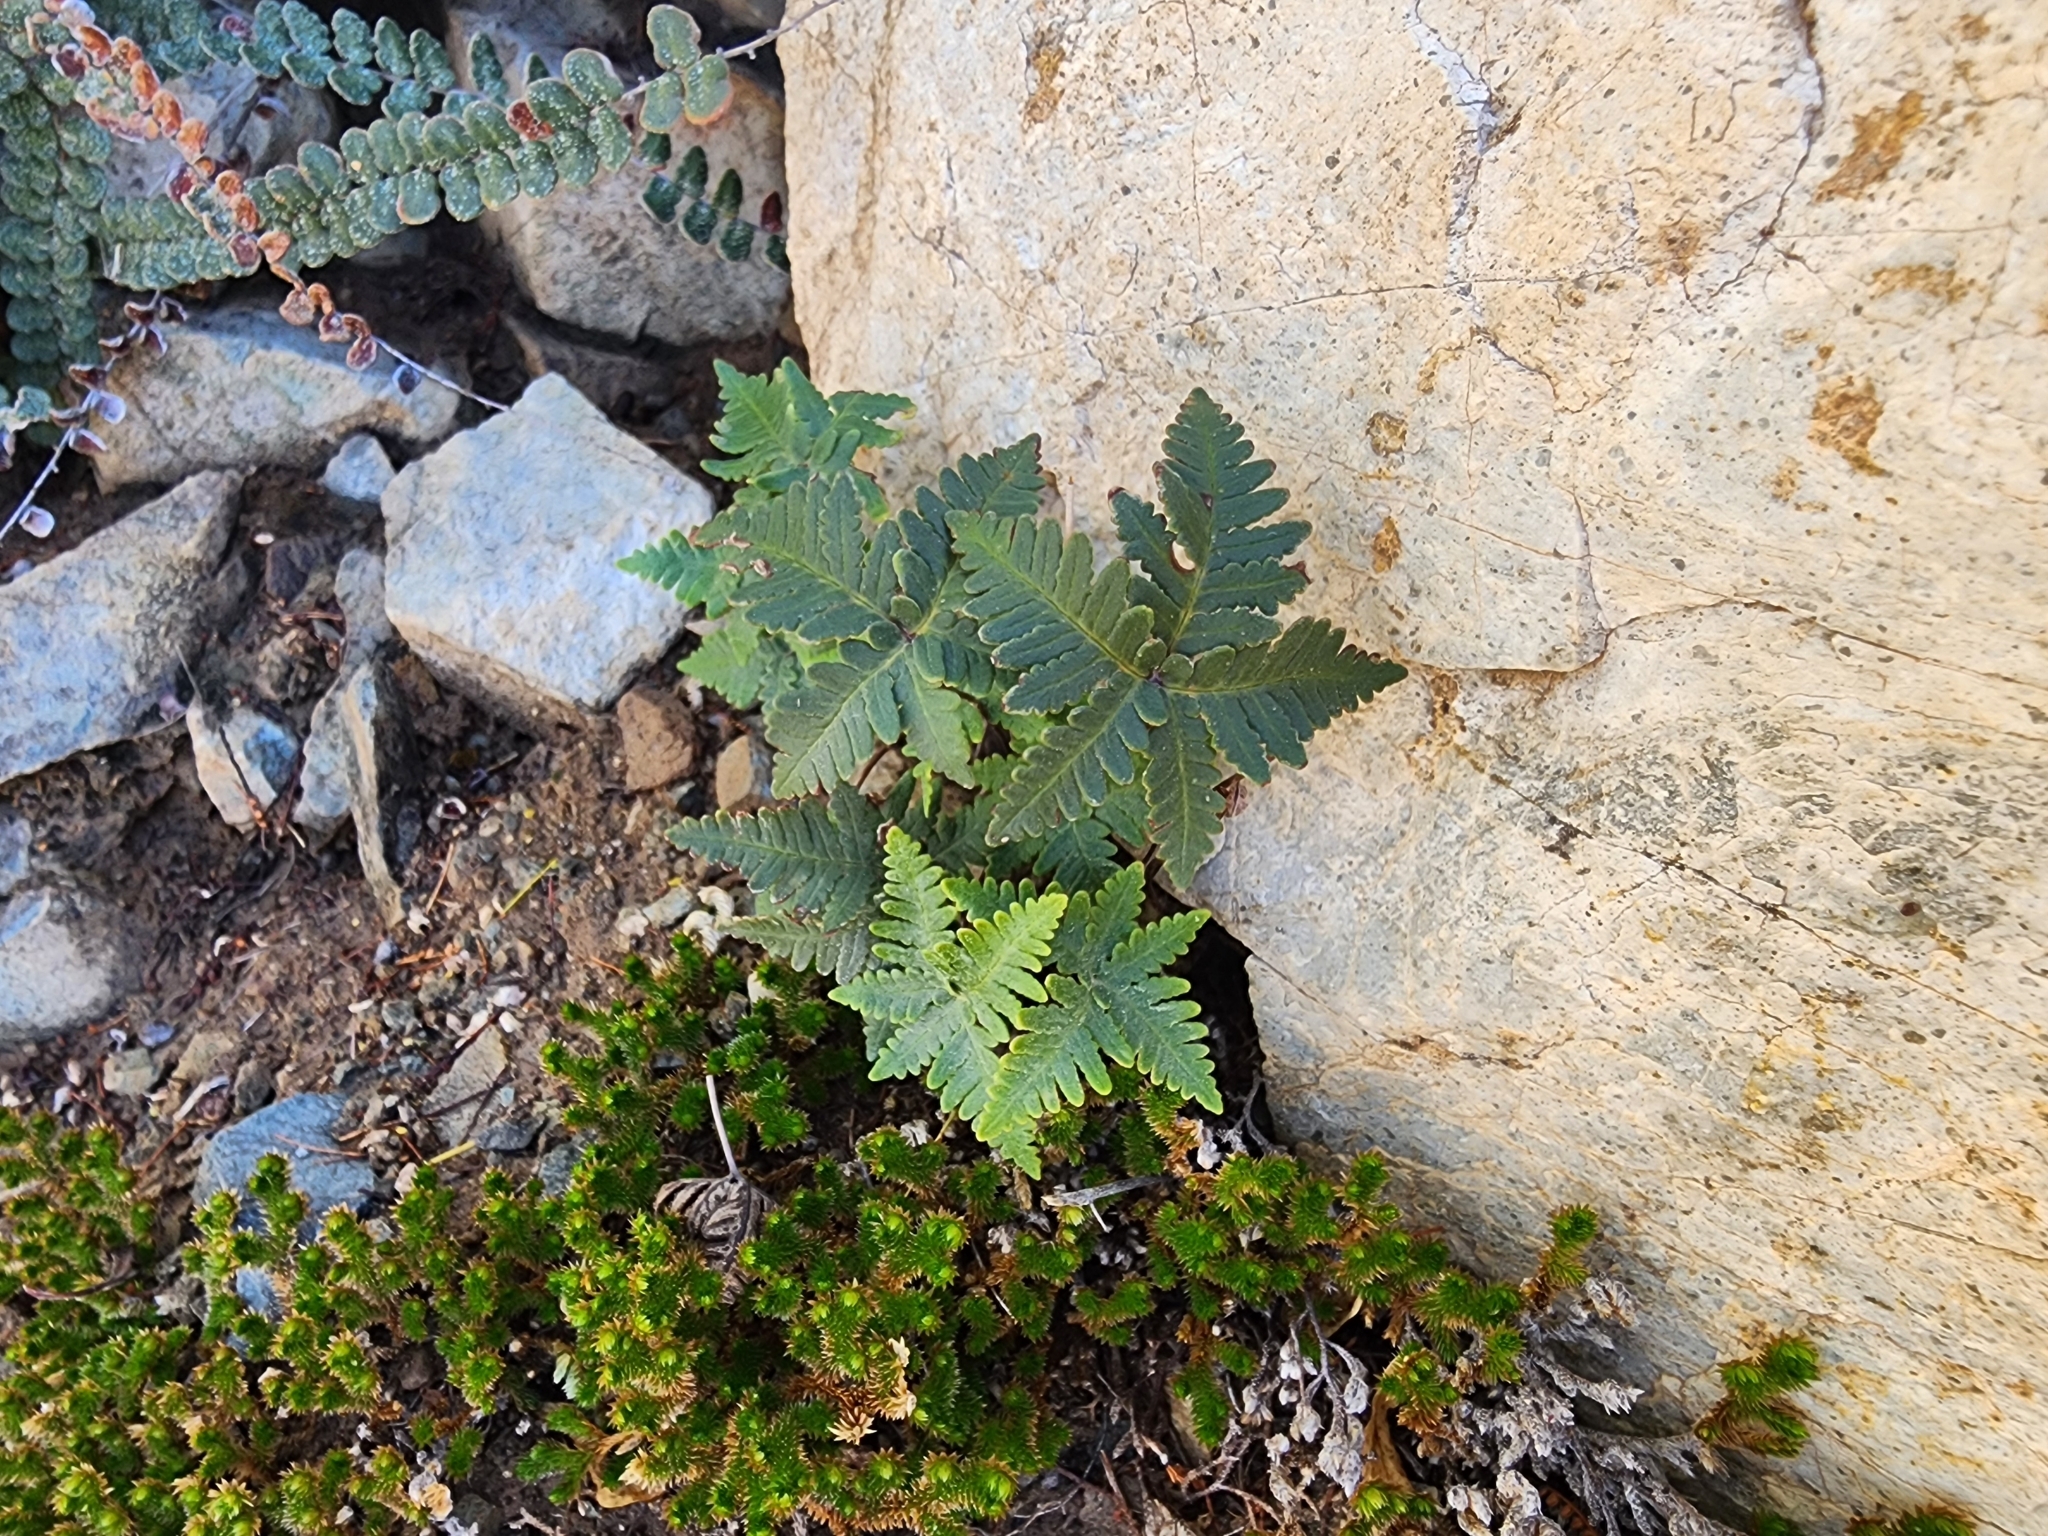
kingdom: Plantae
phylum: Tracheophyta
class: Polypodiopsida
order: Polypodiales
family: Pteridaceae
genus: Notholaena
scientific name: Notholaena standleyi
